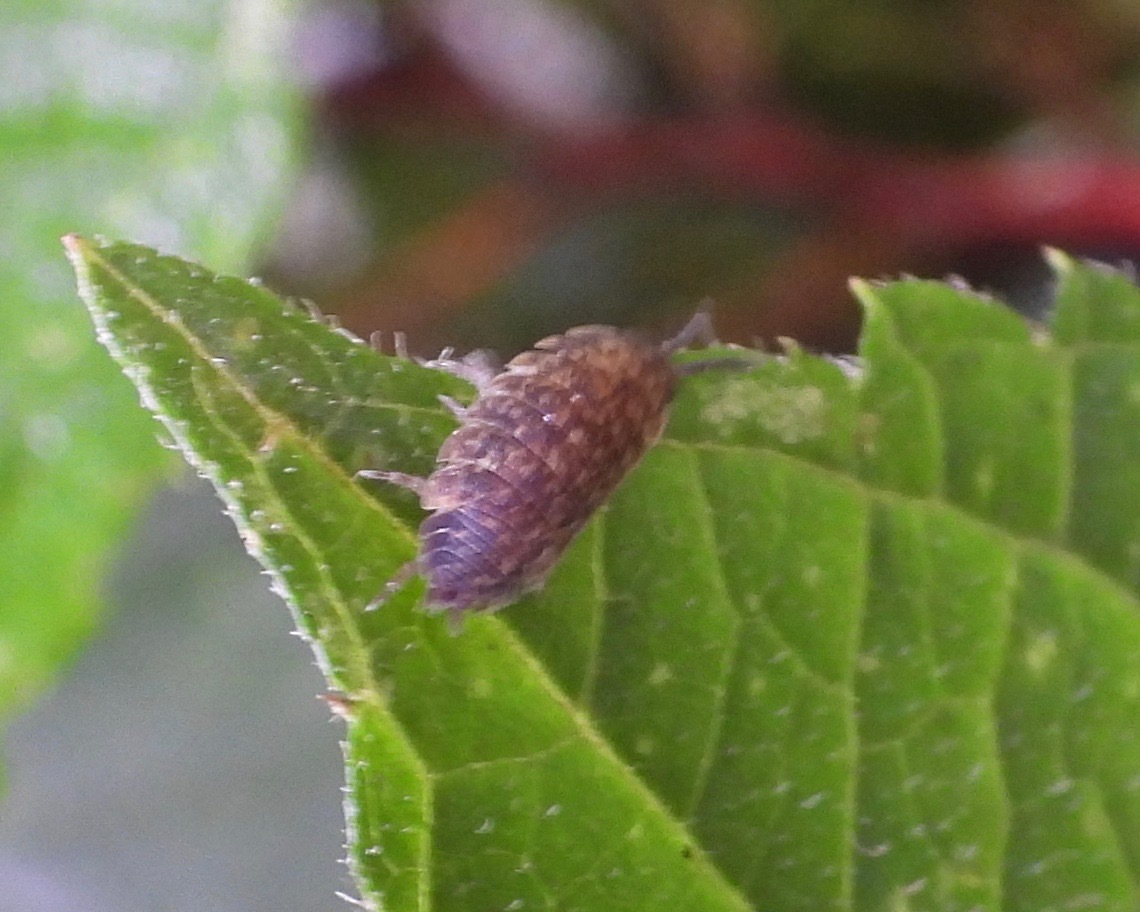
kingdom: Animalia
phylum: Arthropoda
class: Malacostraca
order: Isopoda
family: Porcellionidae
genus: Porcellio
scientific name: Porcellio scaber
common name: Common rough woodlouse
